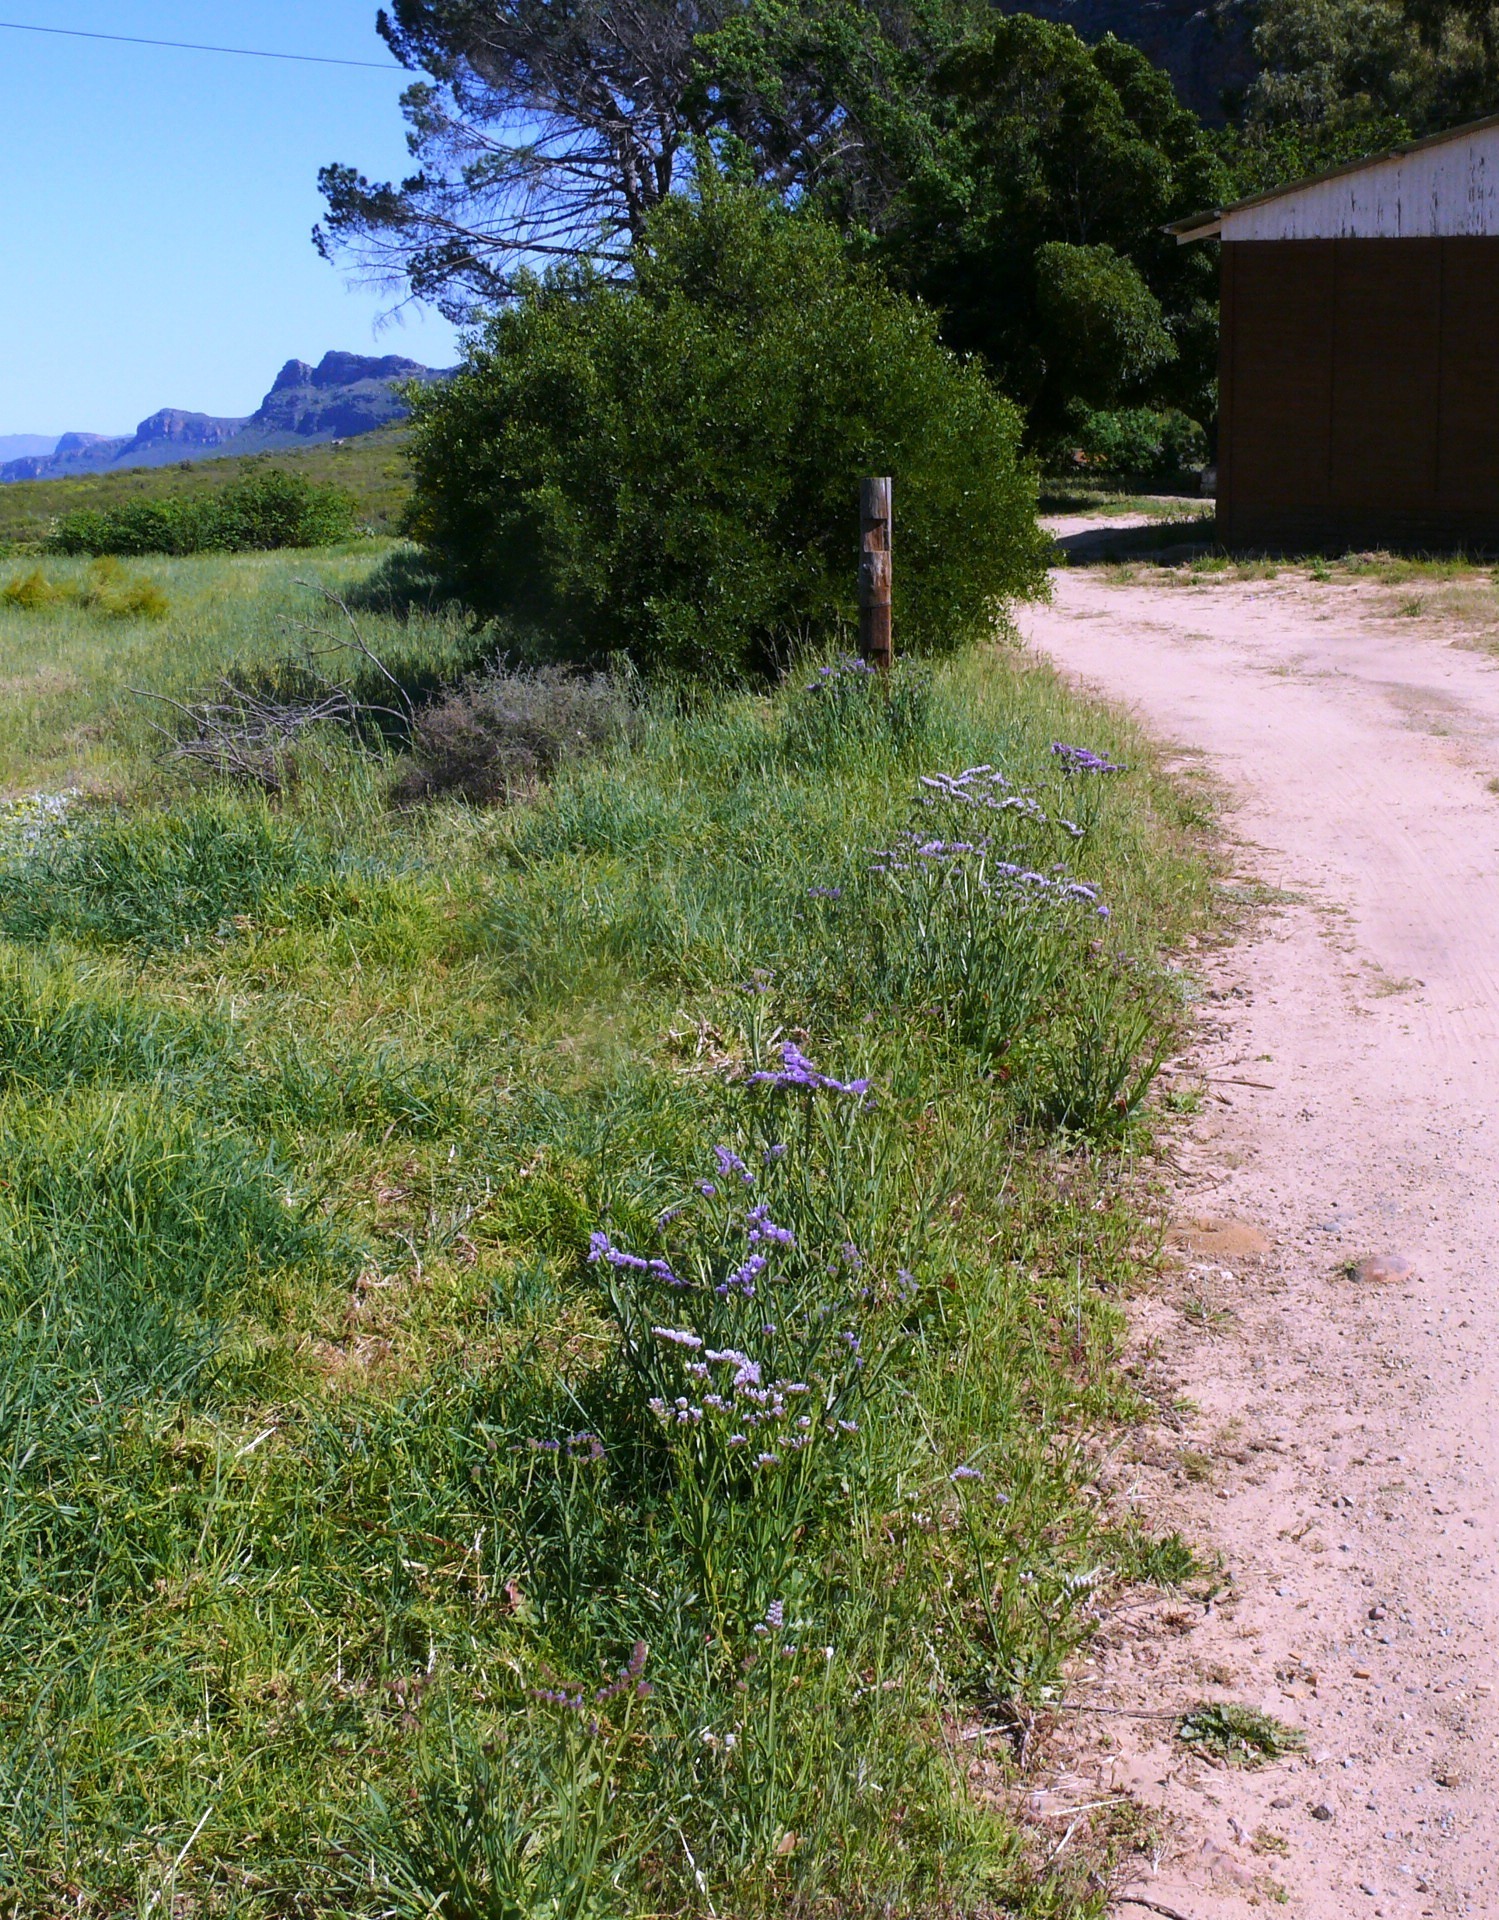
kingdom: Plantae
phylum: Tracheophyta
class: Magnoliopsida
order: Caryophyllales
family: Plumbaginaceae
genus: Limonium
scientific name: Limonium sinuatum
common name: Statice
